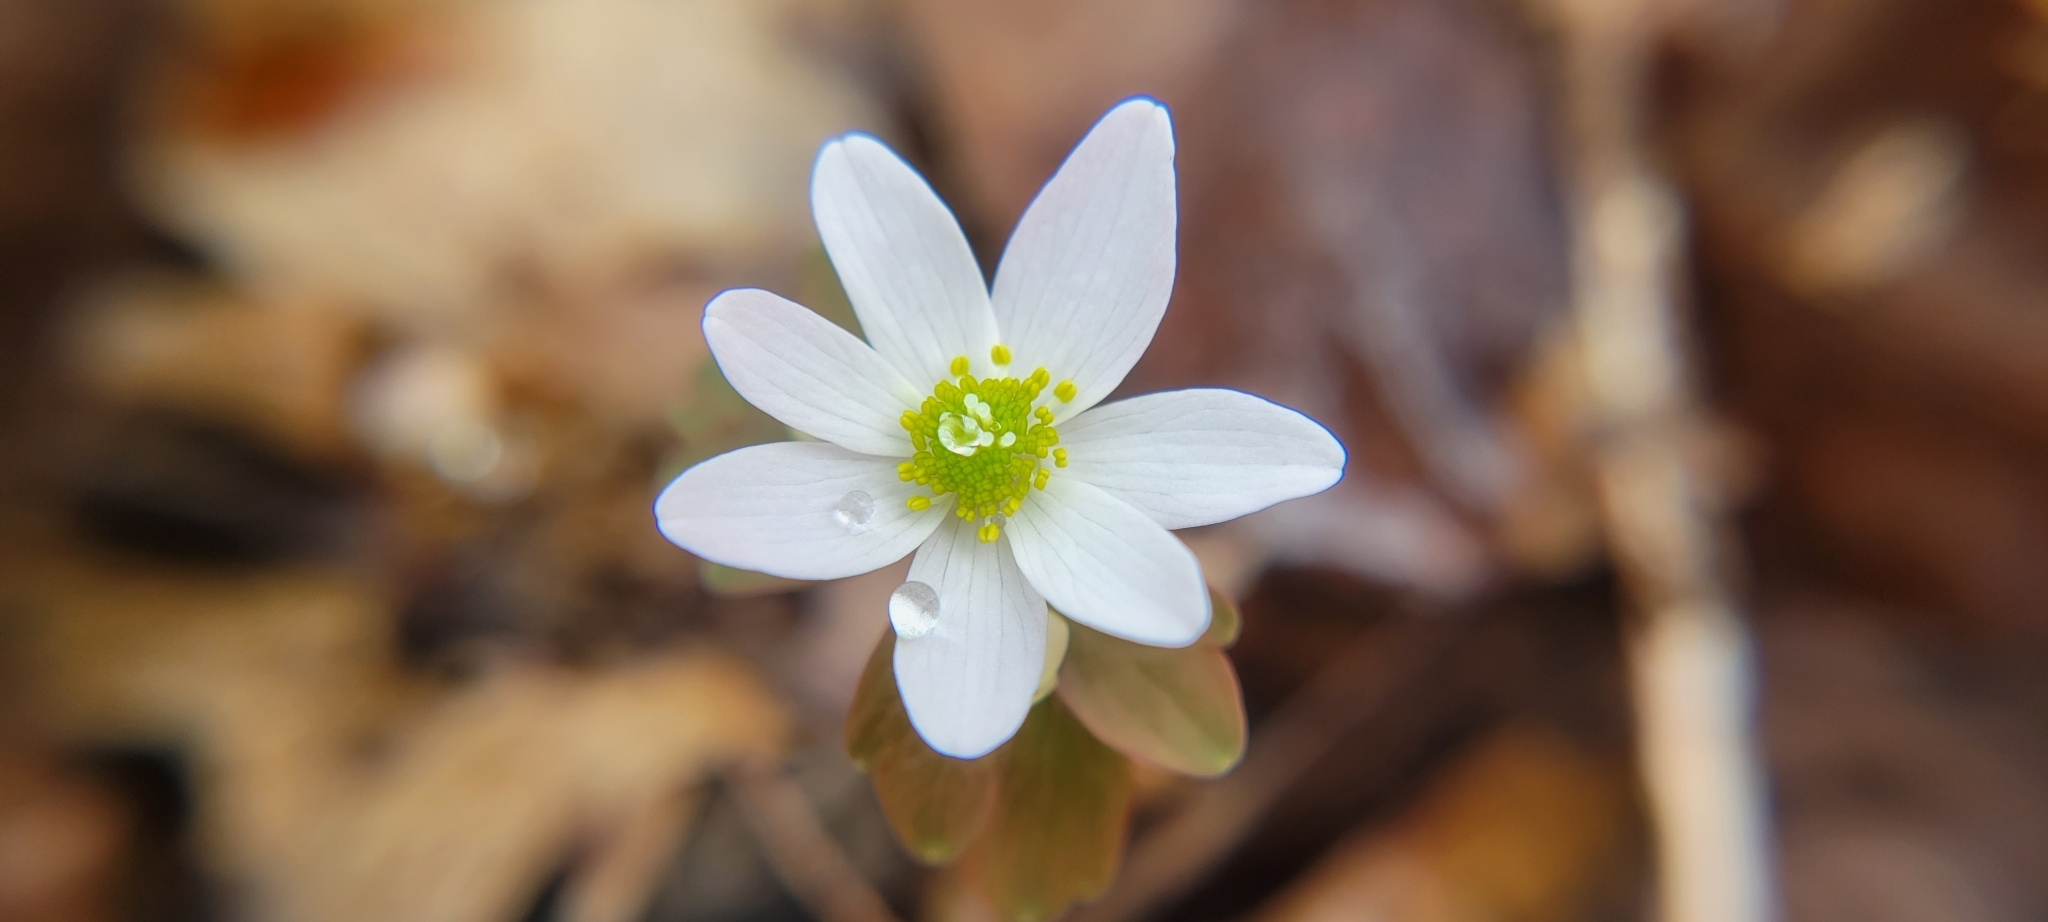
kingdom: Plantae
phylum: Tracheophyta
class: Magnoliopsida
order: Ranunculales
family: Ranunculaceae
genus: Thalictrum
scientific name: Thalictrum thalictroides
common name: Rue-anemone
